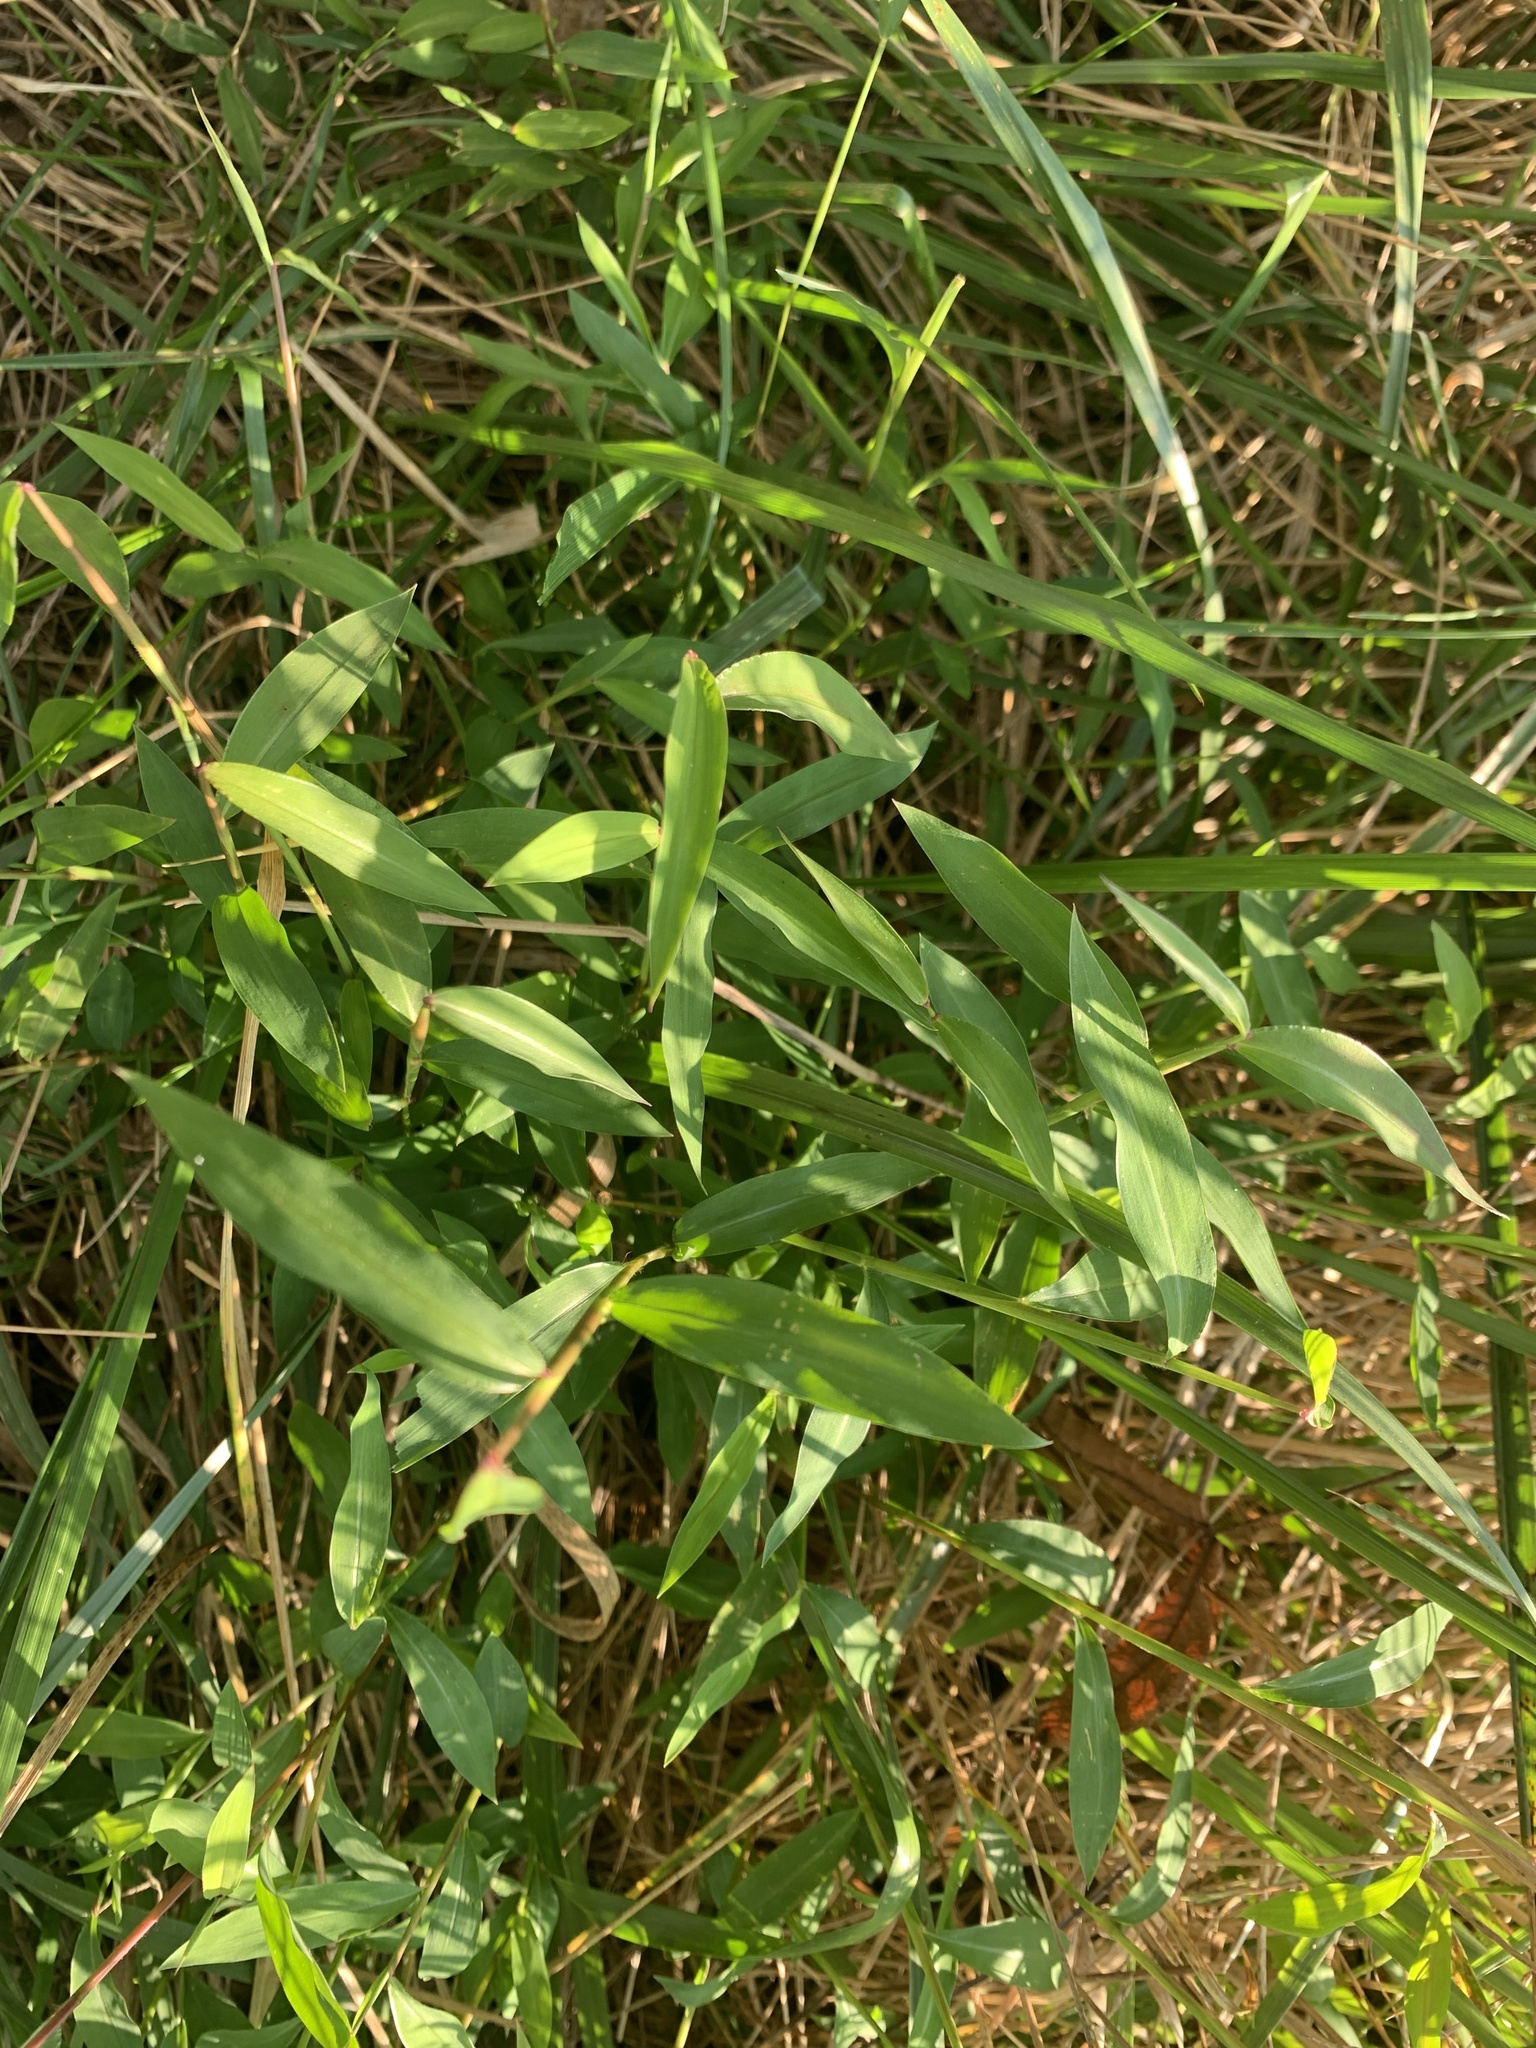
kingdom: Plantae
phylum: Tracheophyta
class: Liliopsida
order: Poales
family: Poaceae
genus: Microstegium
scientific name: Microstegium vimineum
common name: Japanese stiltgrass
